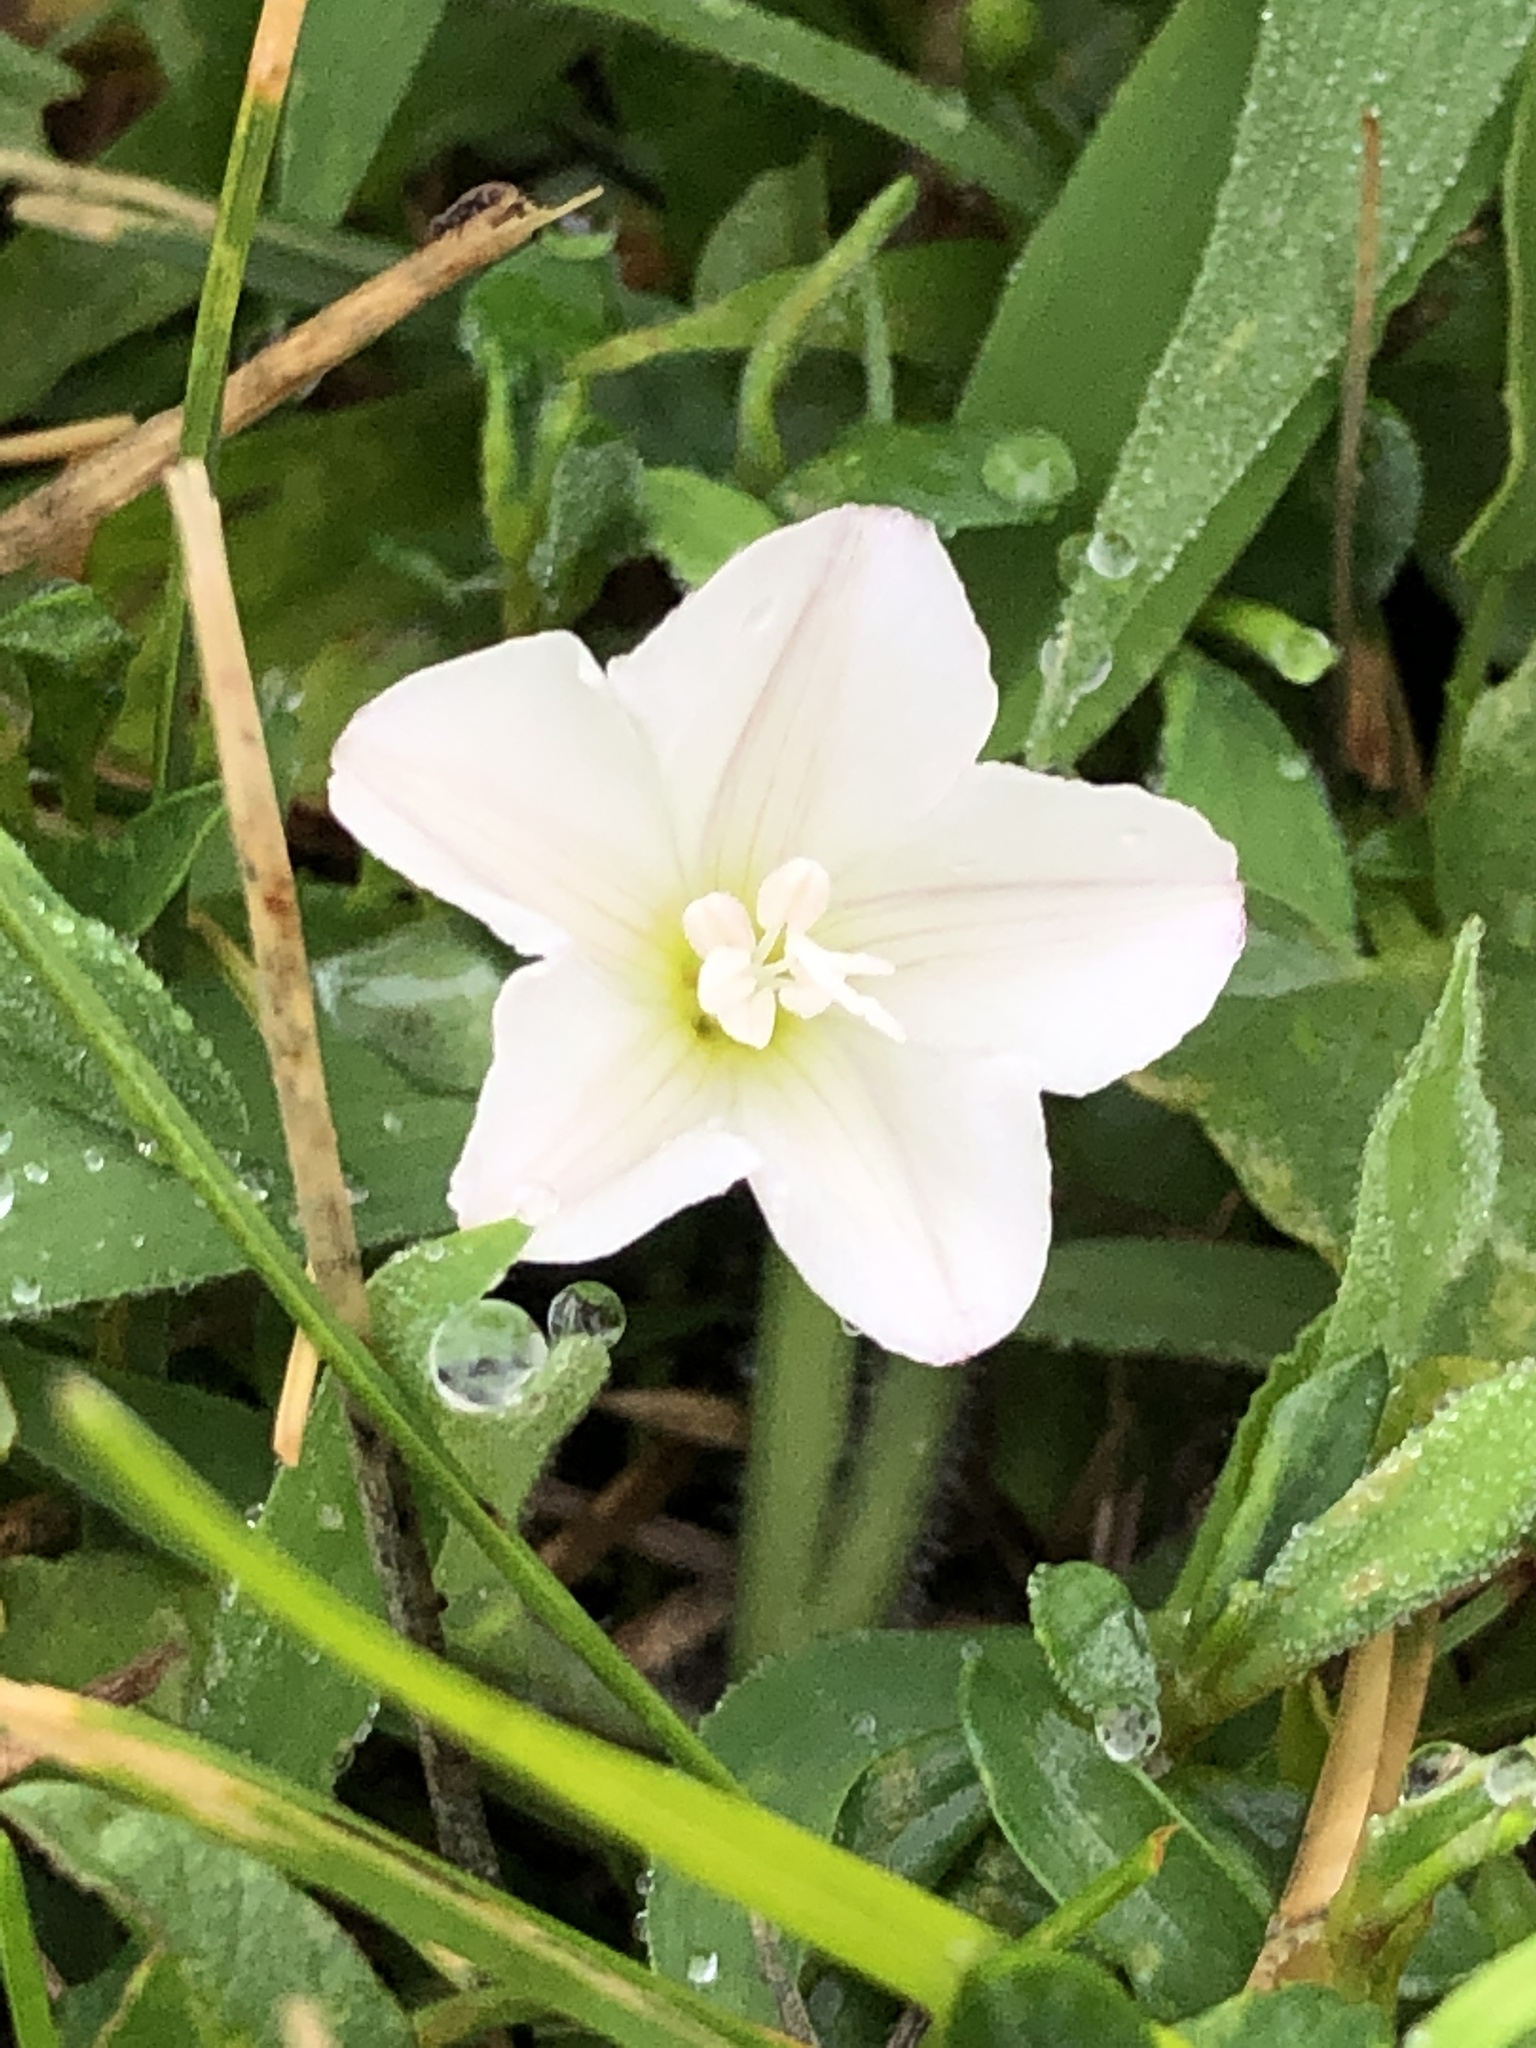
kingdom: Plantae
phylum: Tracheophyta
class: Magnoliopsida
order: Solanales
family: Convolvulaceae
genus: Convolvulus
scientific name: Convolvulus arvensis
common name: Field bindweed
